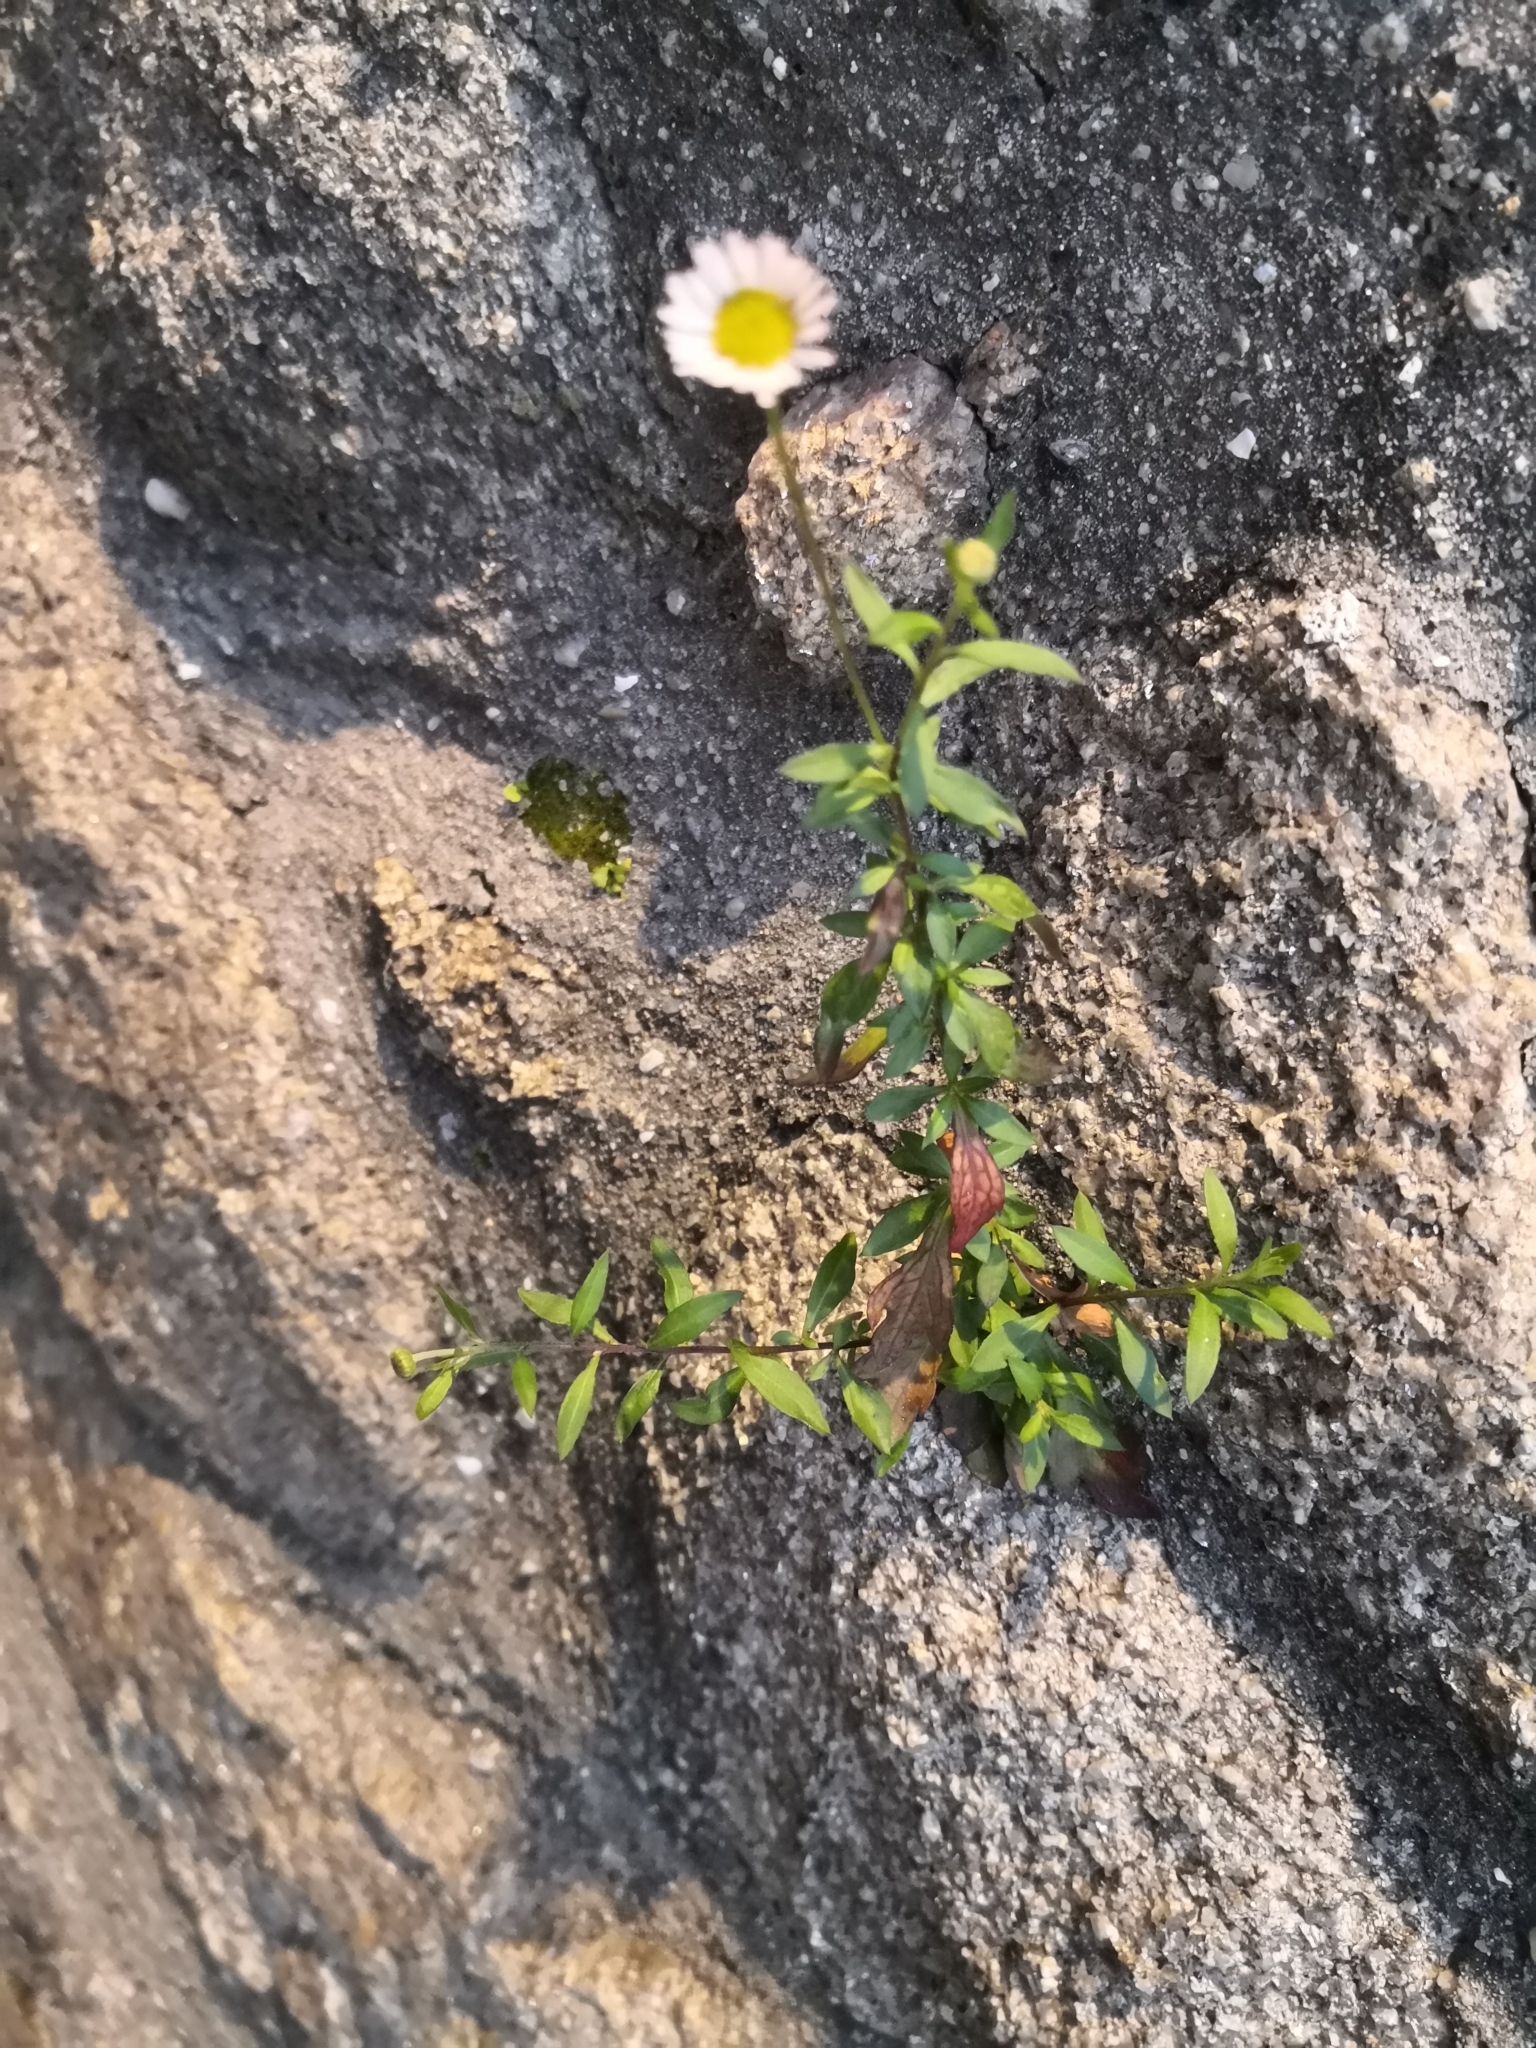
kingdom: Plantae
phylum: Tracheophyta
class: Magnoliopsida
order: Asterales
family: Asteraceae
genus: Erigeron
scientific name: Erigeron karvinskianus
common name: Mexican fleabane
